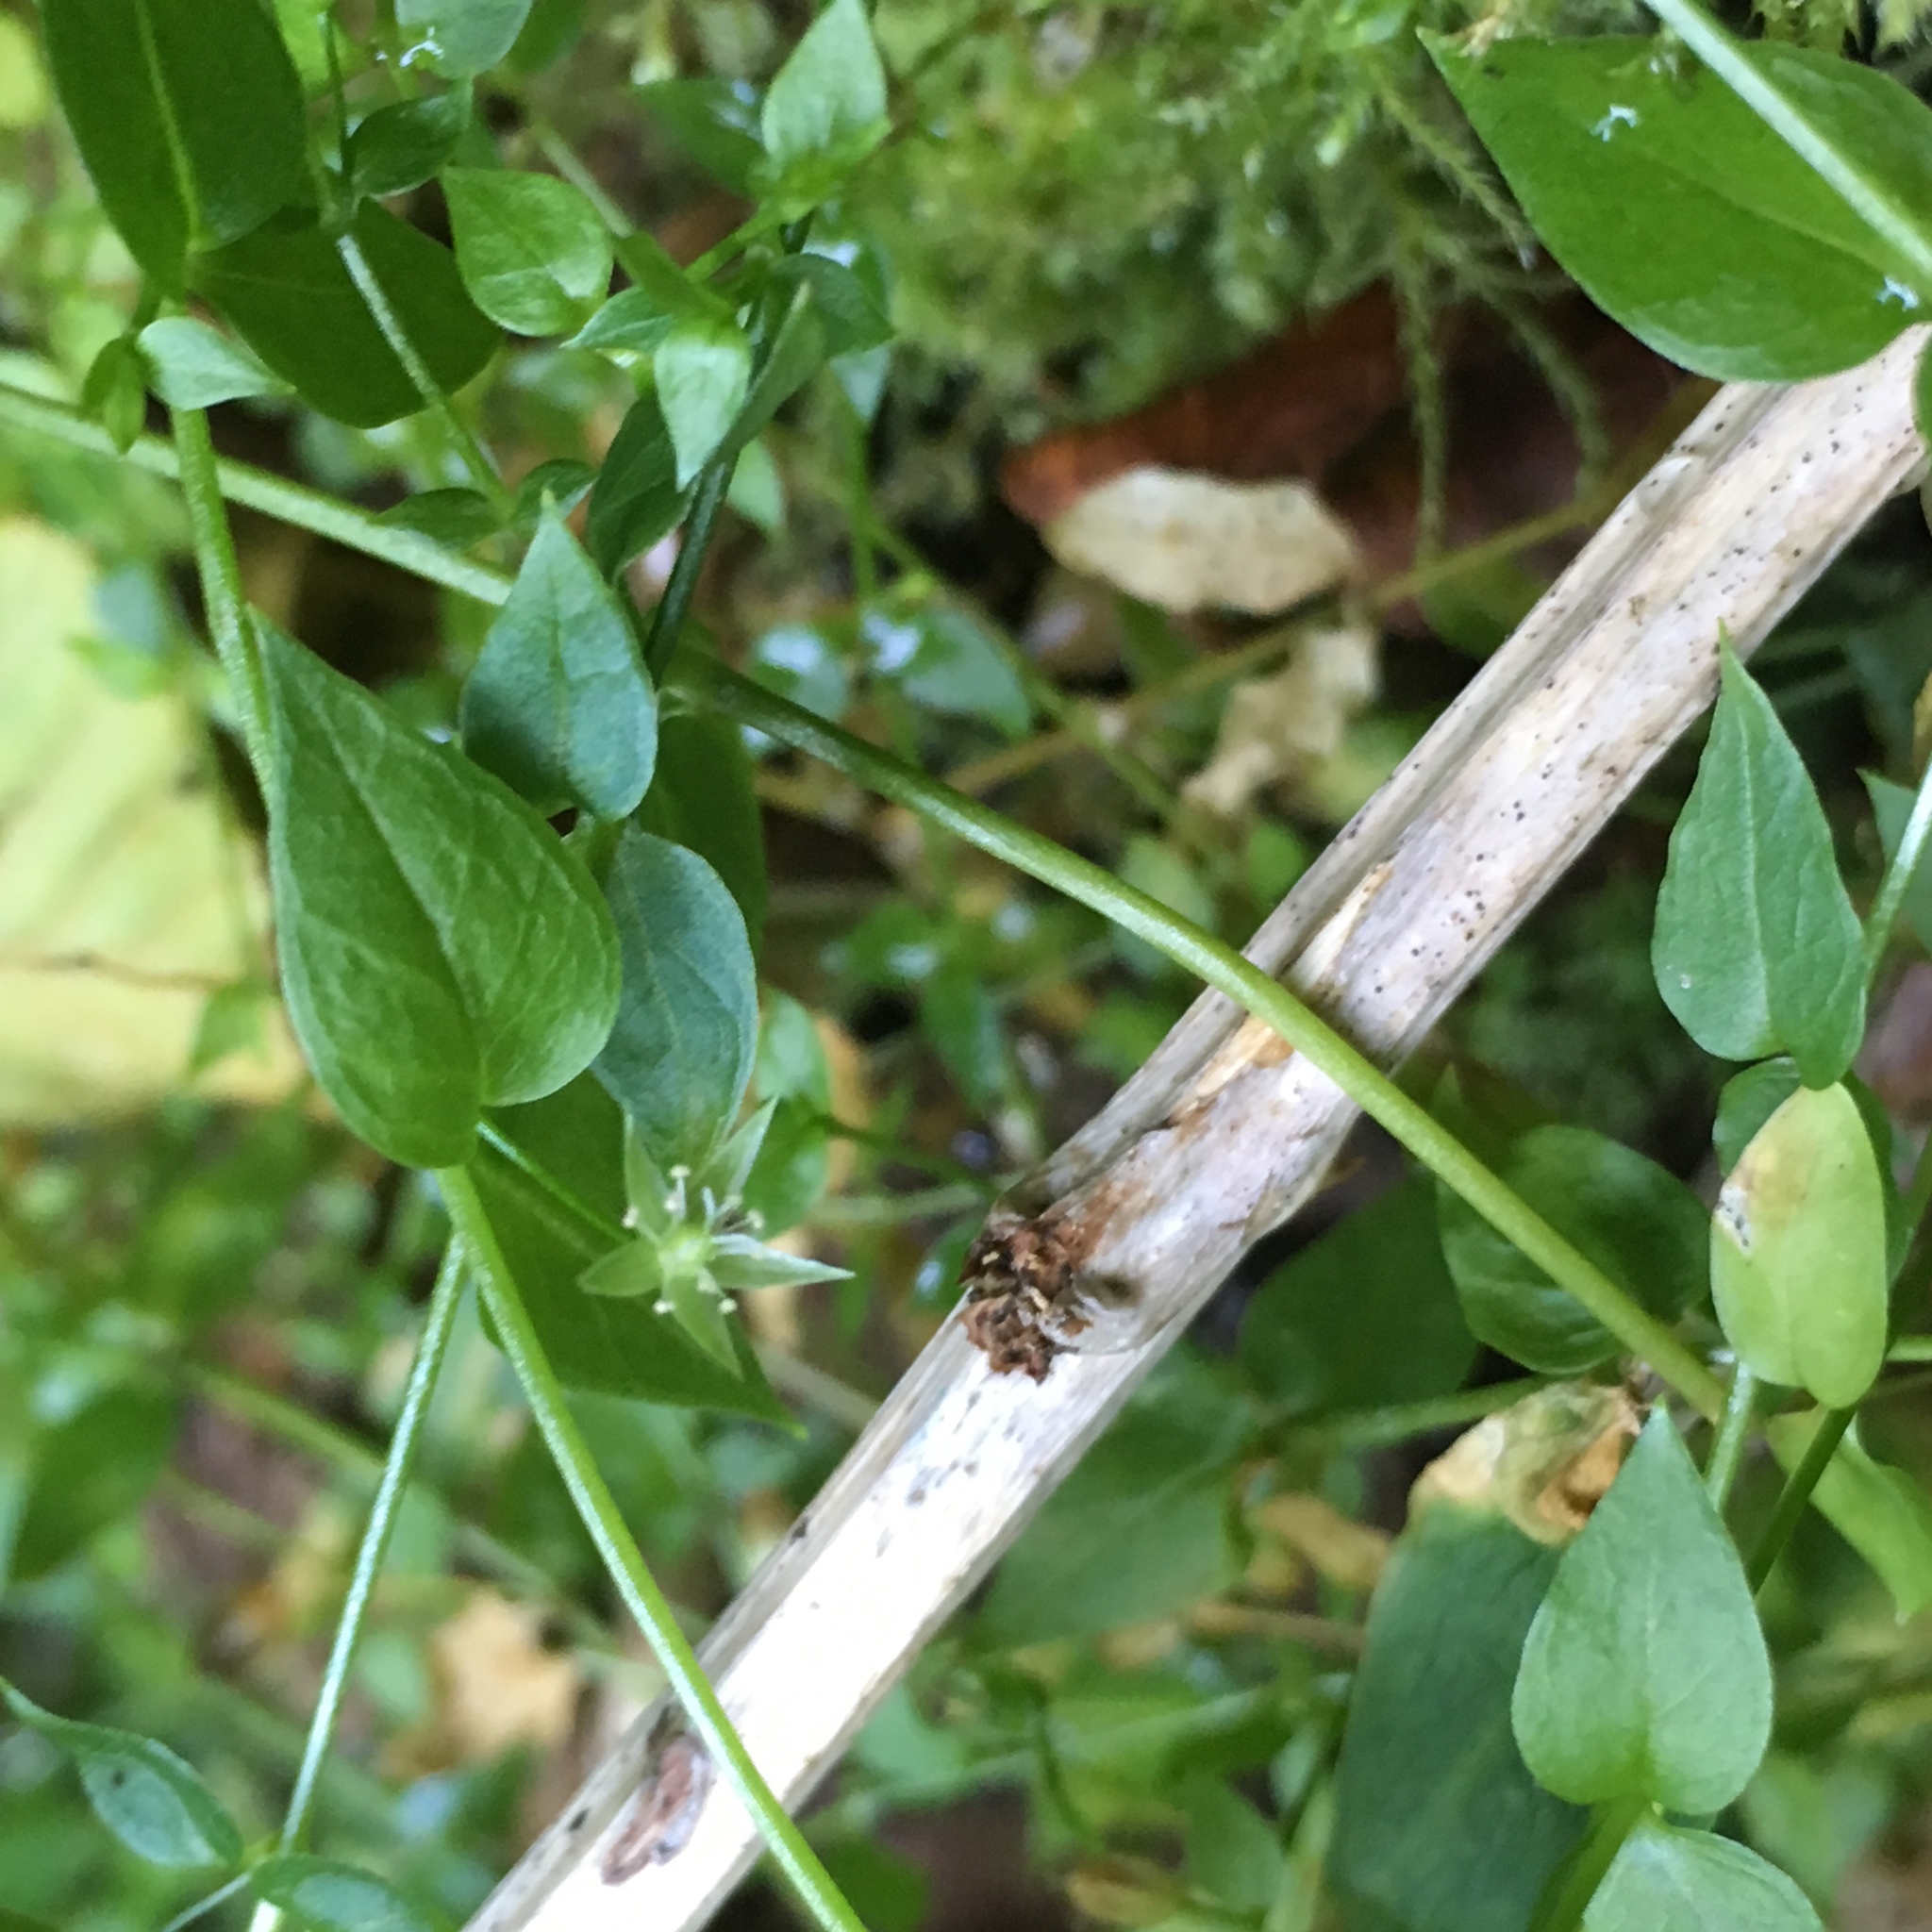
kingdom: Plantae
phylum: Tracheophyta
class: Magnoliopsida
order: Caryophyllales
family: Caryophyllaceae
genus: Stellaria
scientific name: Stellaria crispa
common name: Crimped stitchwort
